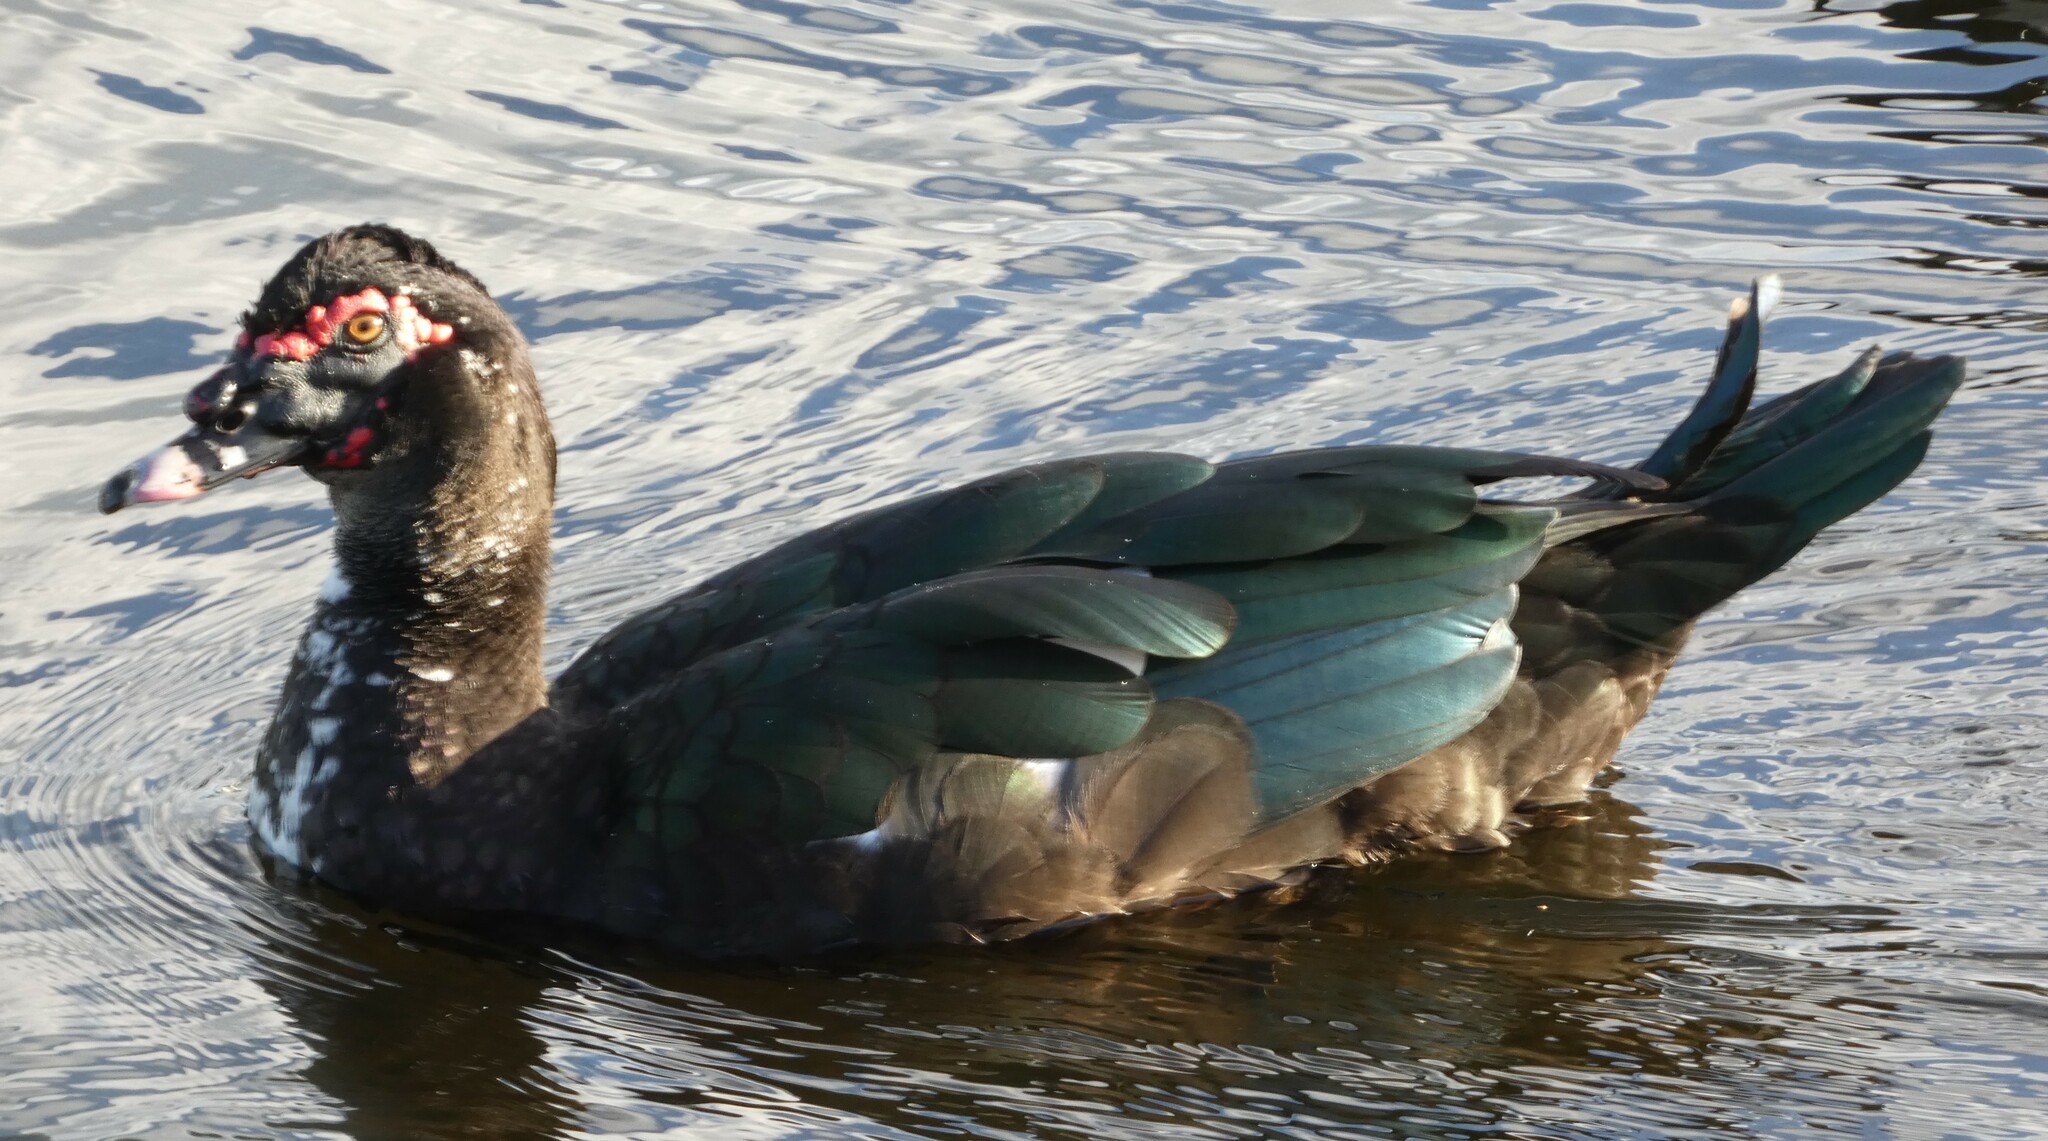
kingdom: Animalia
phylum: Chordata
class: Aves
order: Anseriformes
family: Anatidae
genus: Cairina
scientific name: Cairina moschata
